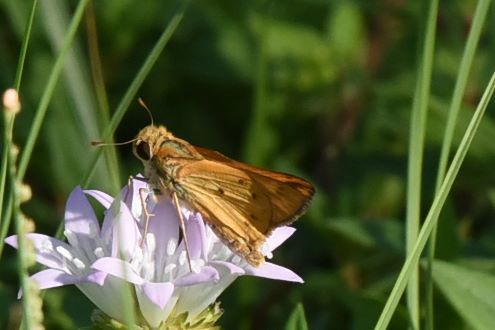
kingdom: Animalia
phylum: Arthropoda
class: Insecta
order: Lepidoptera
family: Hesperiidae
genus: Hylephila
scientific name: Hylephila phyleus
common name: Fiery skipper
